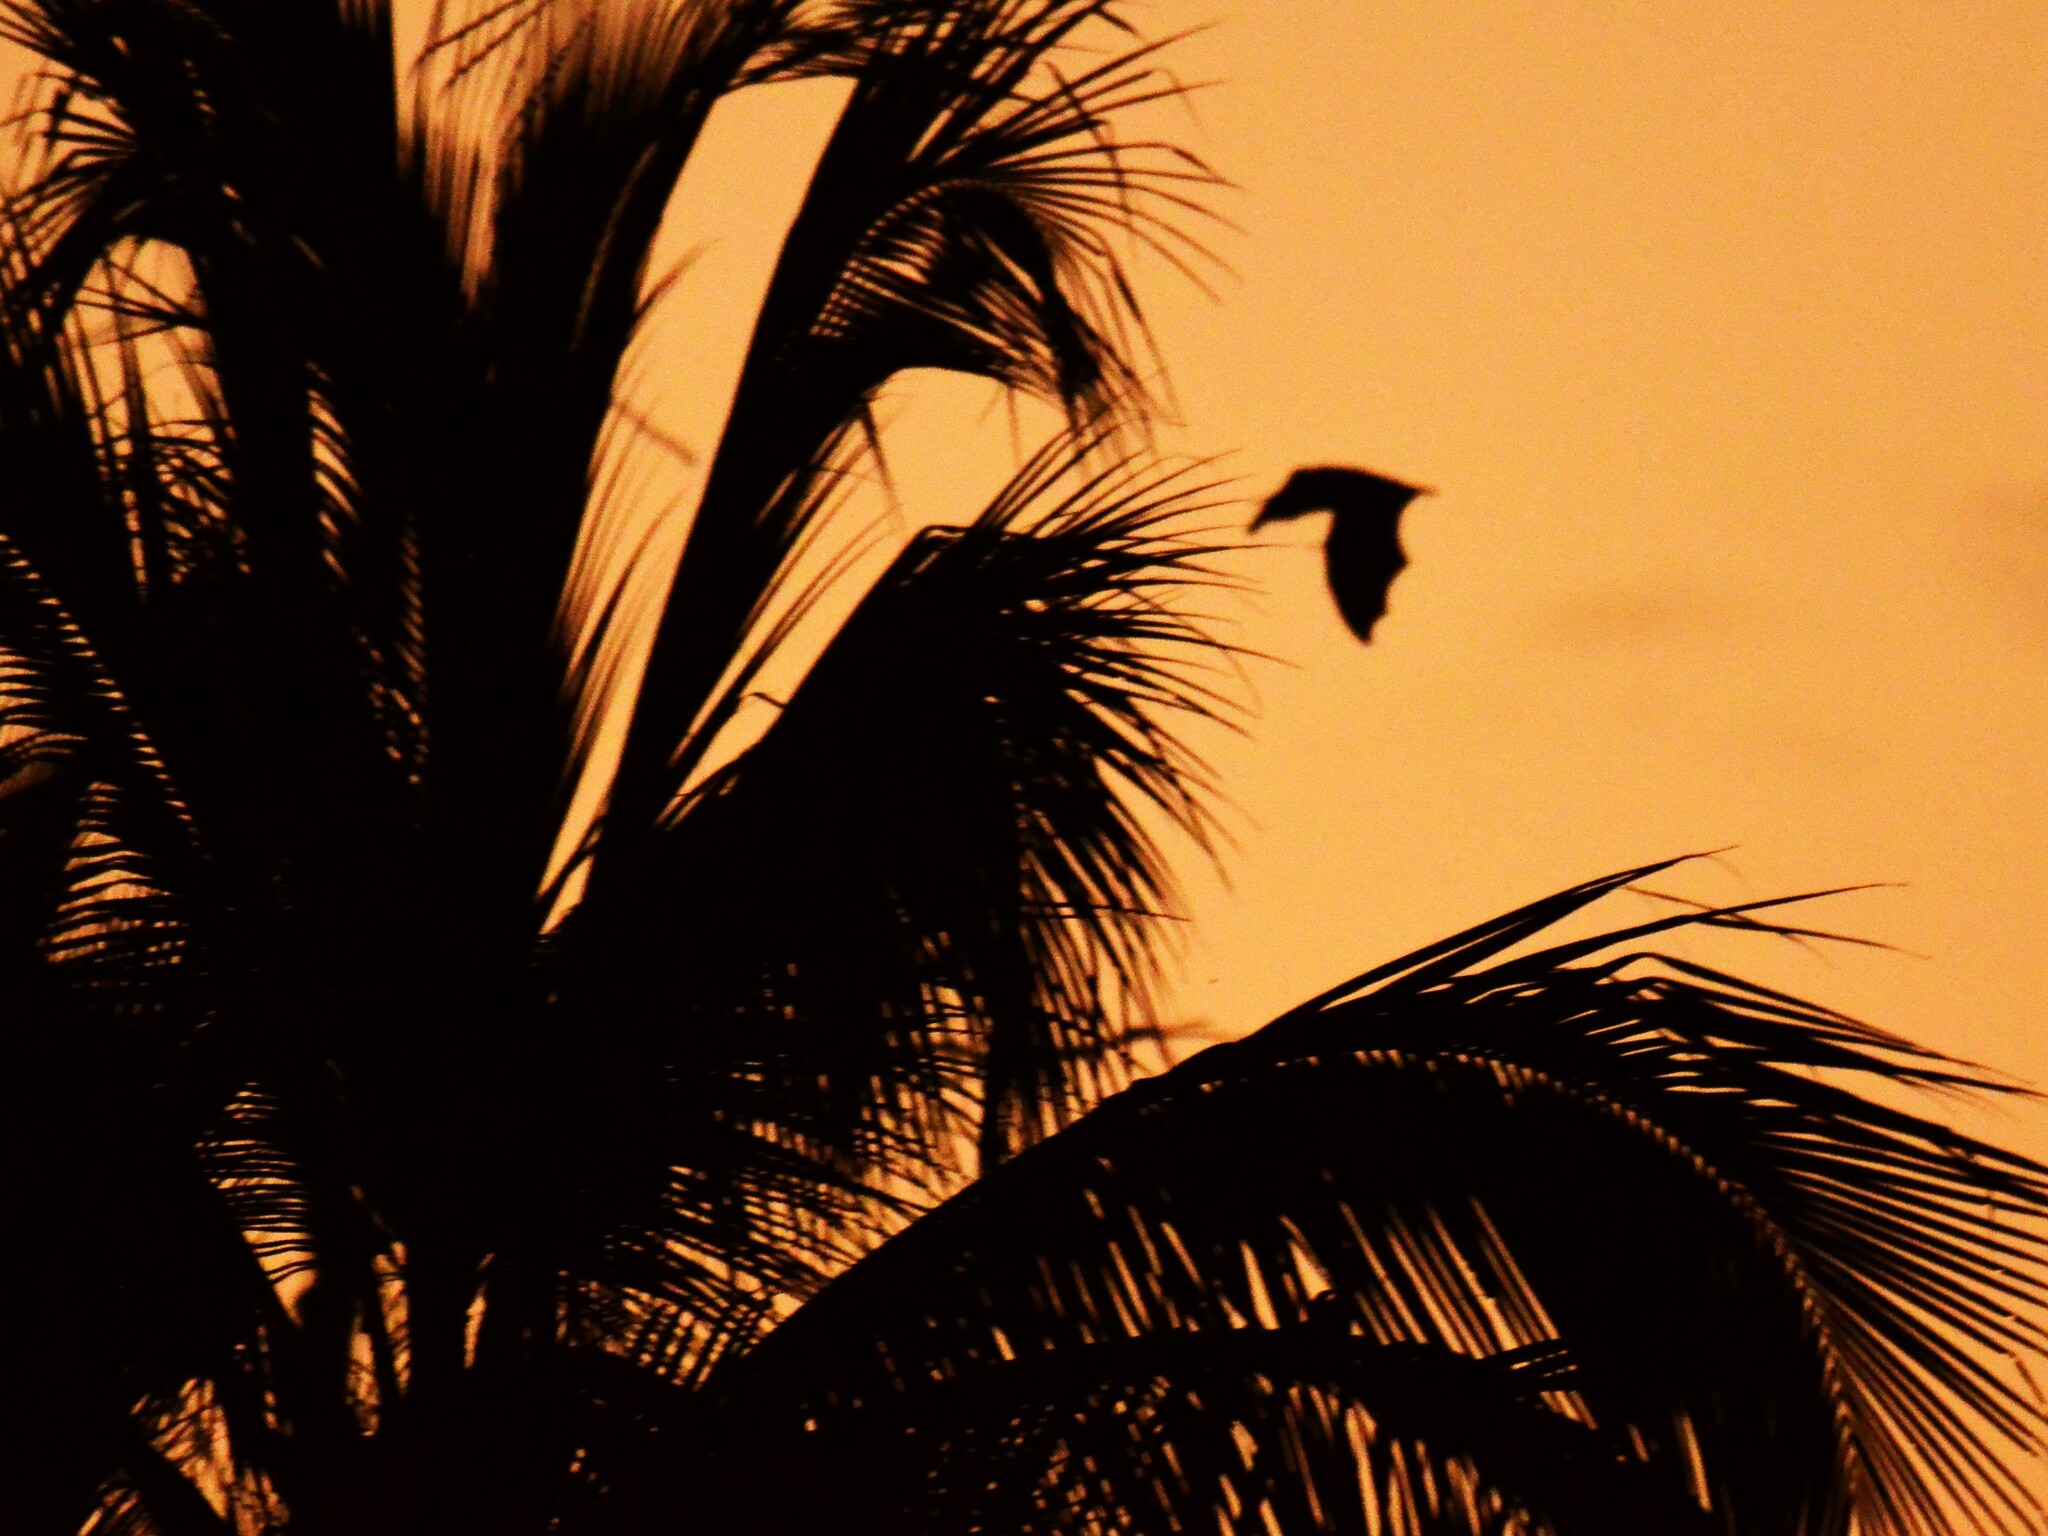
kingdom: Animalia
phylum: Chordata
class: Mammalia
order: Chiroptera
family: Pteropodidae
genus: Pteropus
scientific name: Pteropus tonganus
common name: Pacific flying fox
